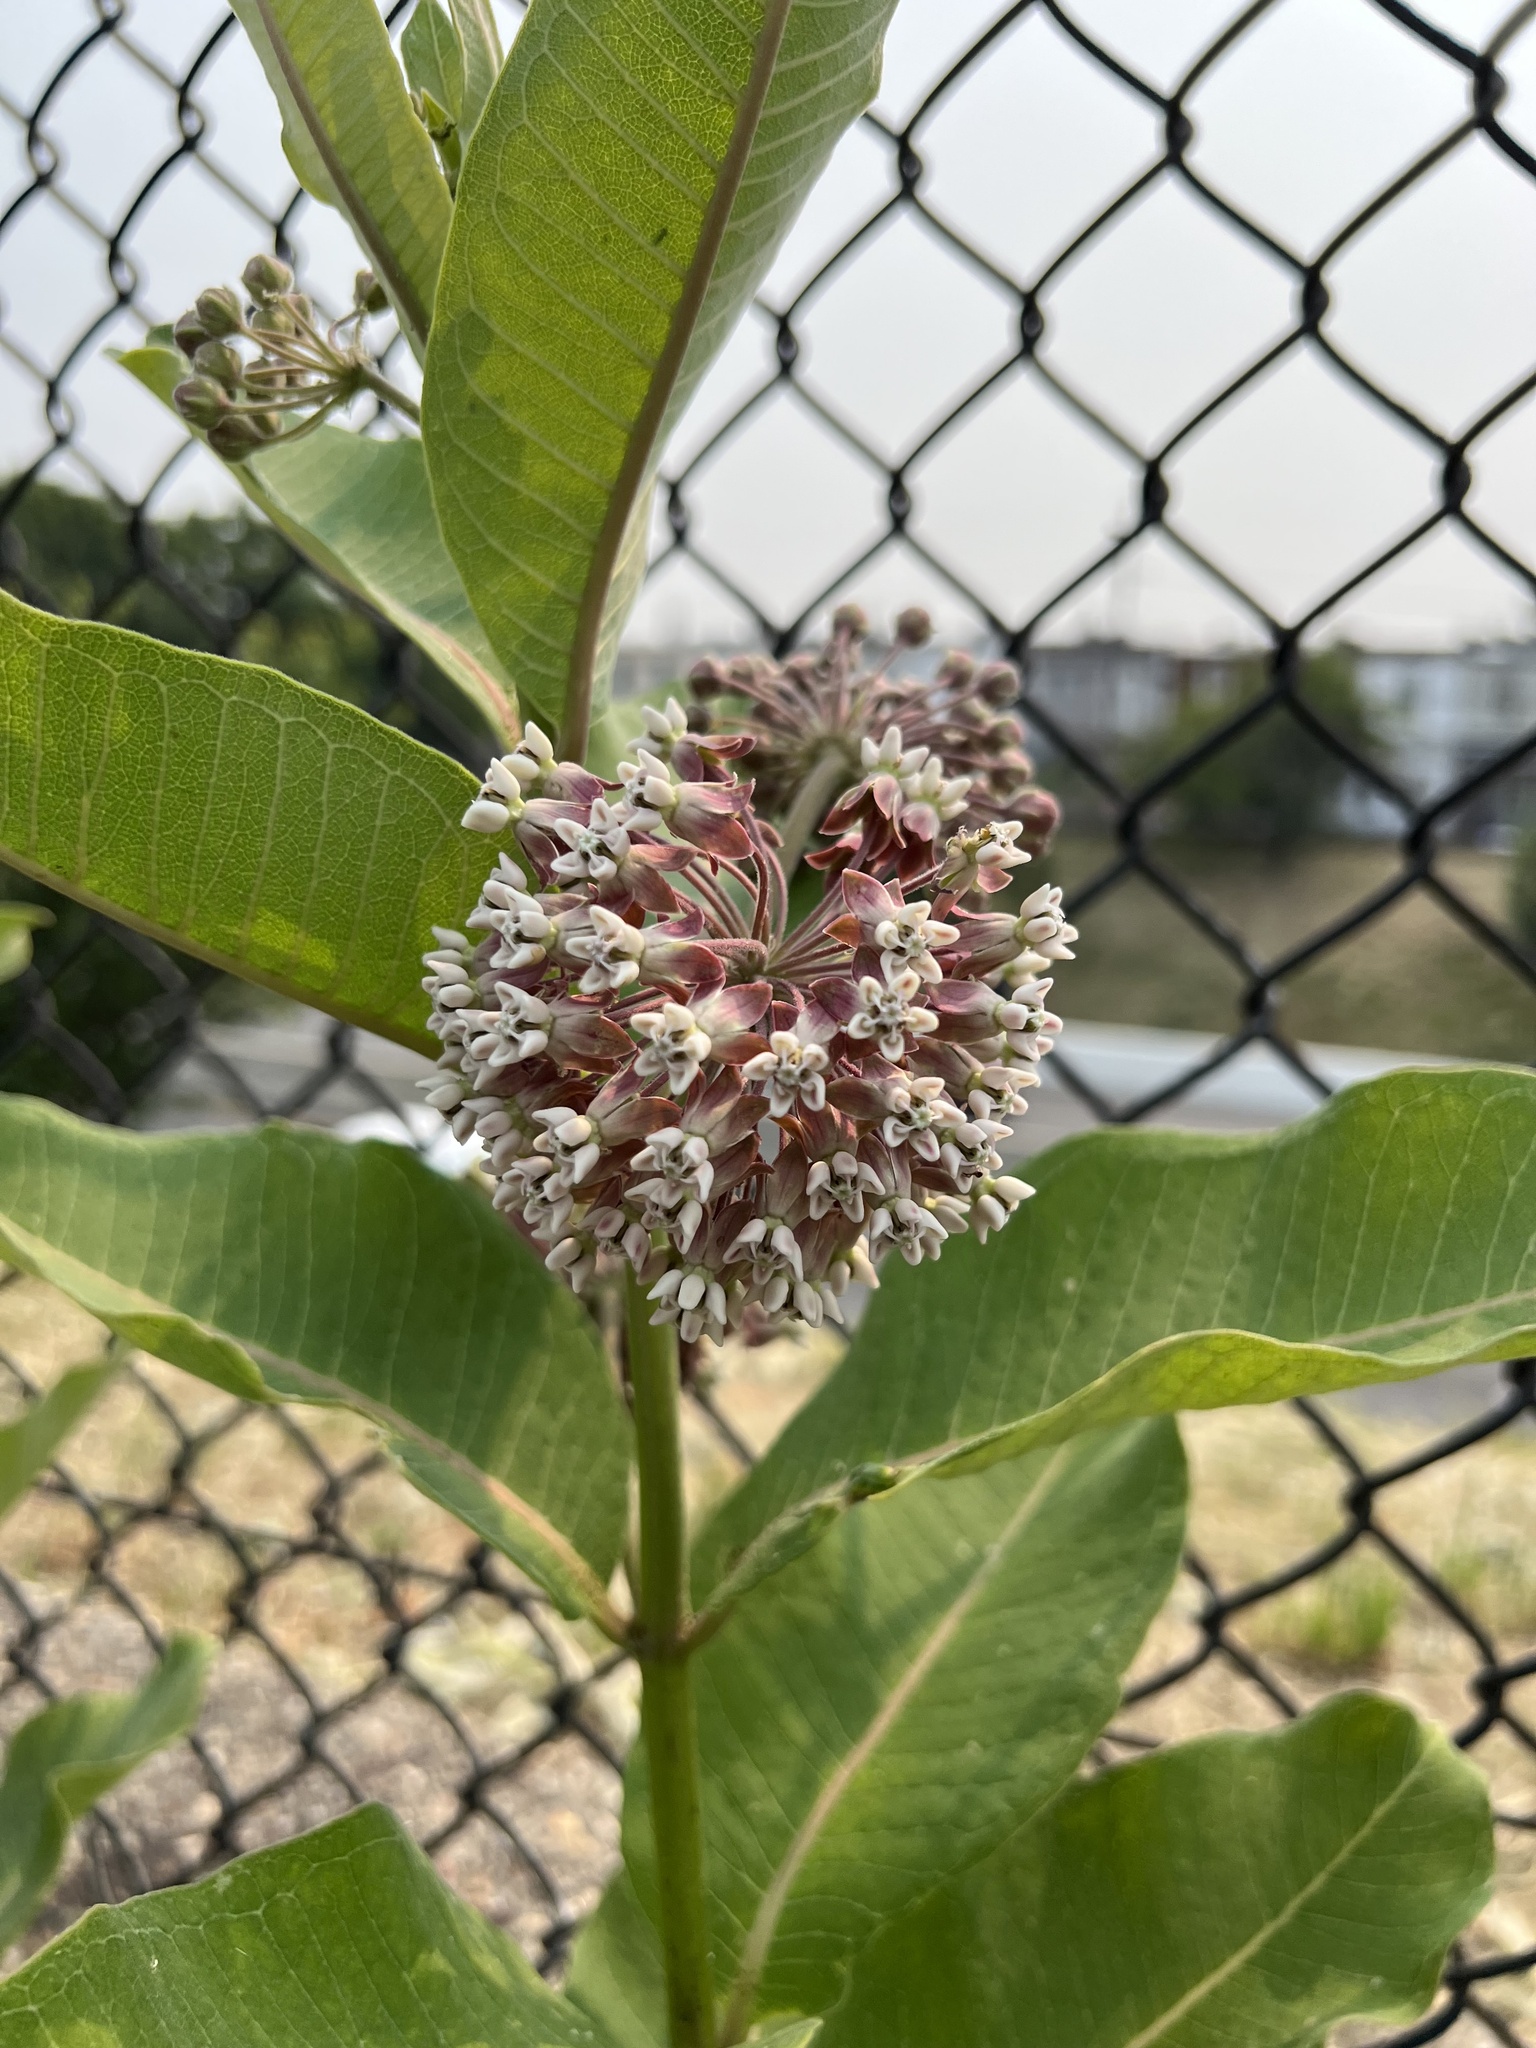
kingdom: Plantae
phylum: Tracheophyta
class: Magnoliopsida
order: Gentianales
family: Apocynaceae
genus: Asclepias
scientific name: Asclepias syriaca
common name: Common milkweed
